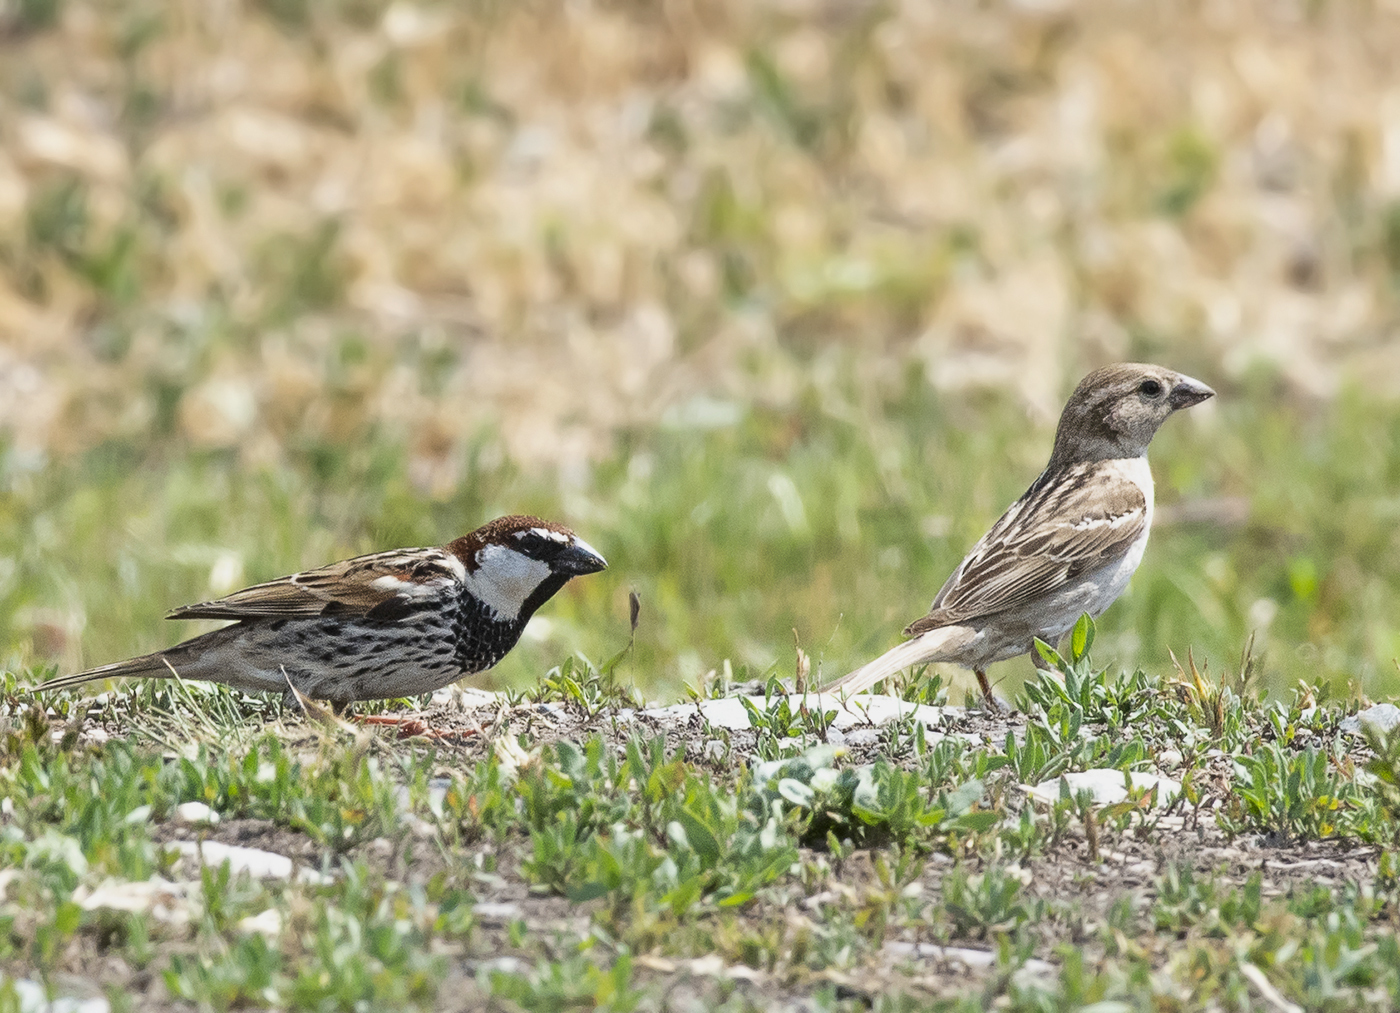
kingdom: Animalia
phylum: Chordata
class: Aves
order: Passeriformes
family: Passeridae
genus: Passer
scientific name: Passer hispaniolensis
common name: Spanish sparrow
